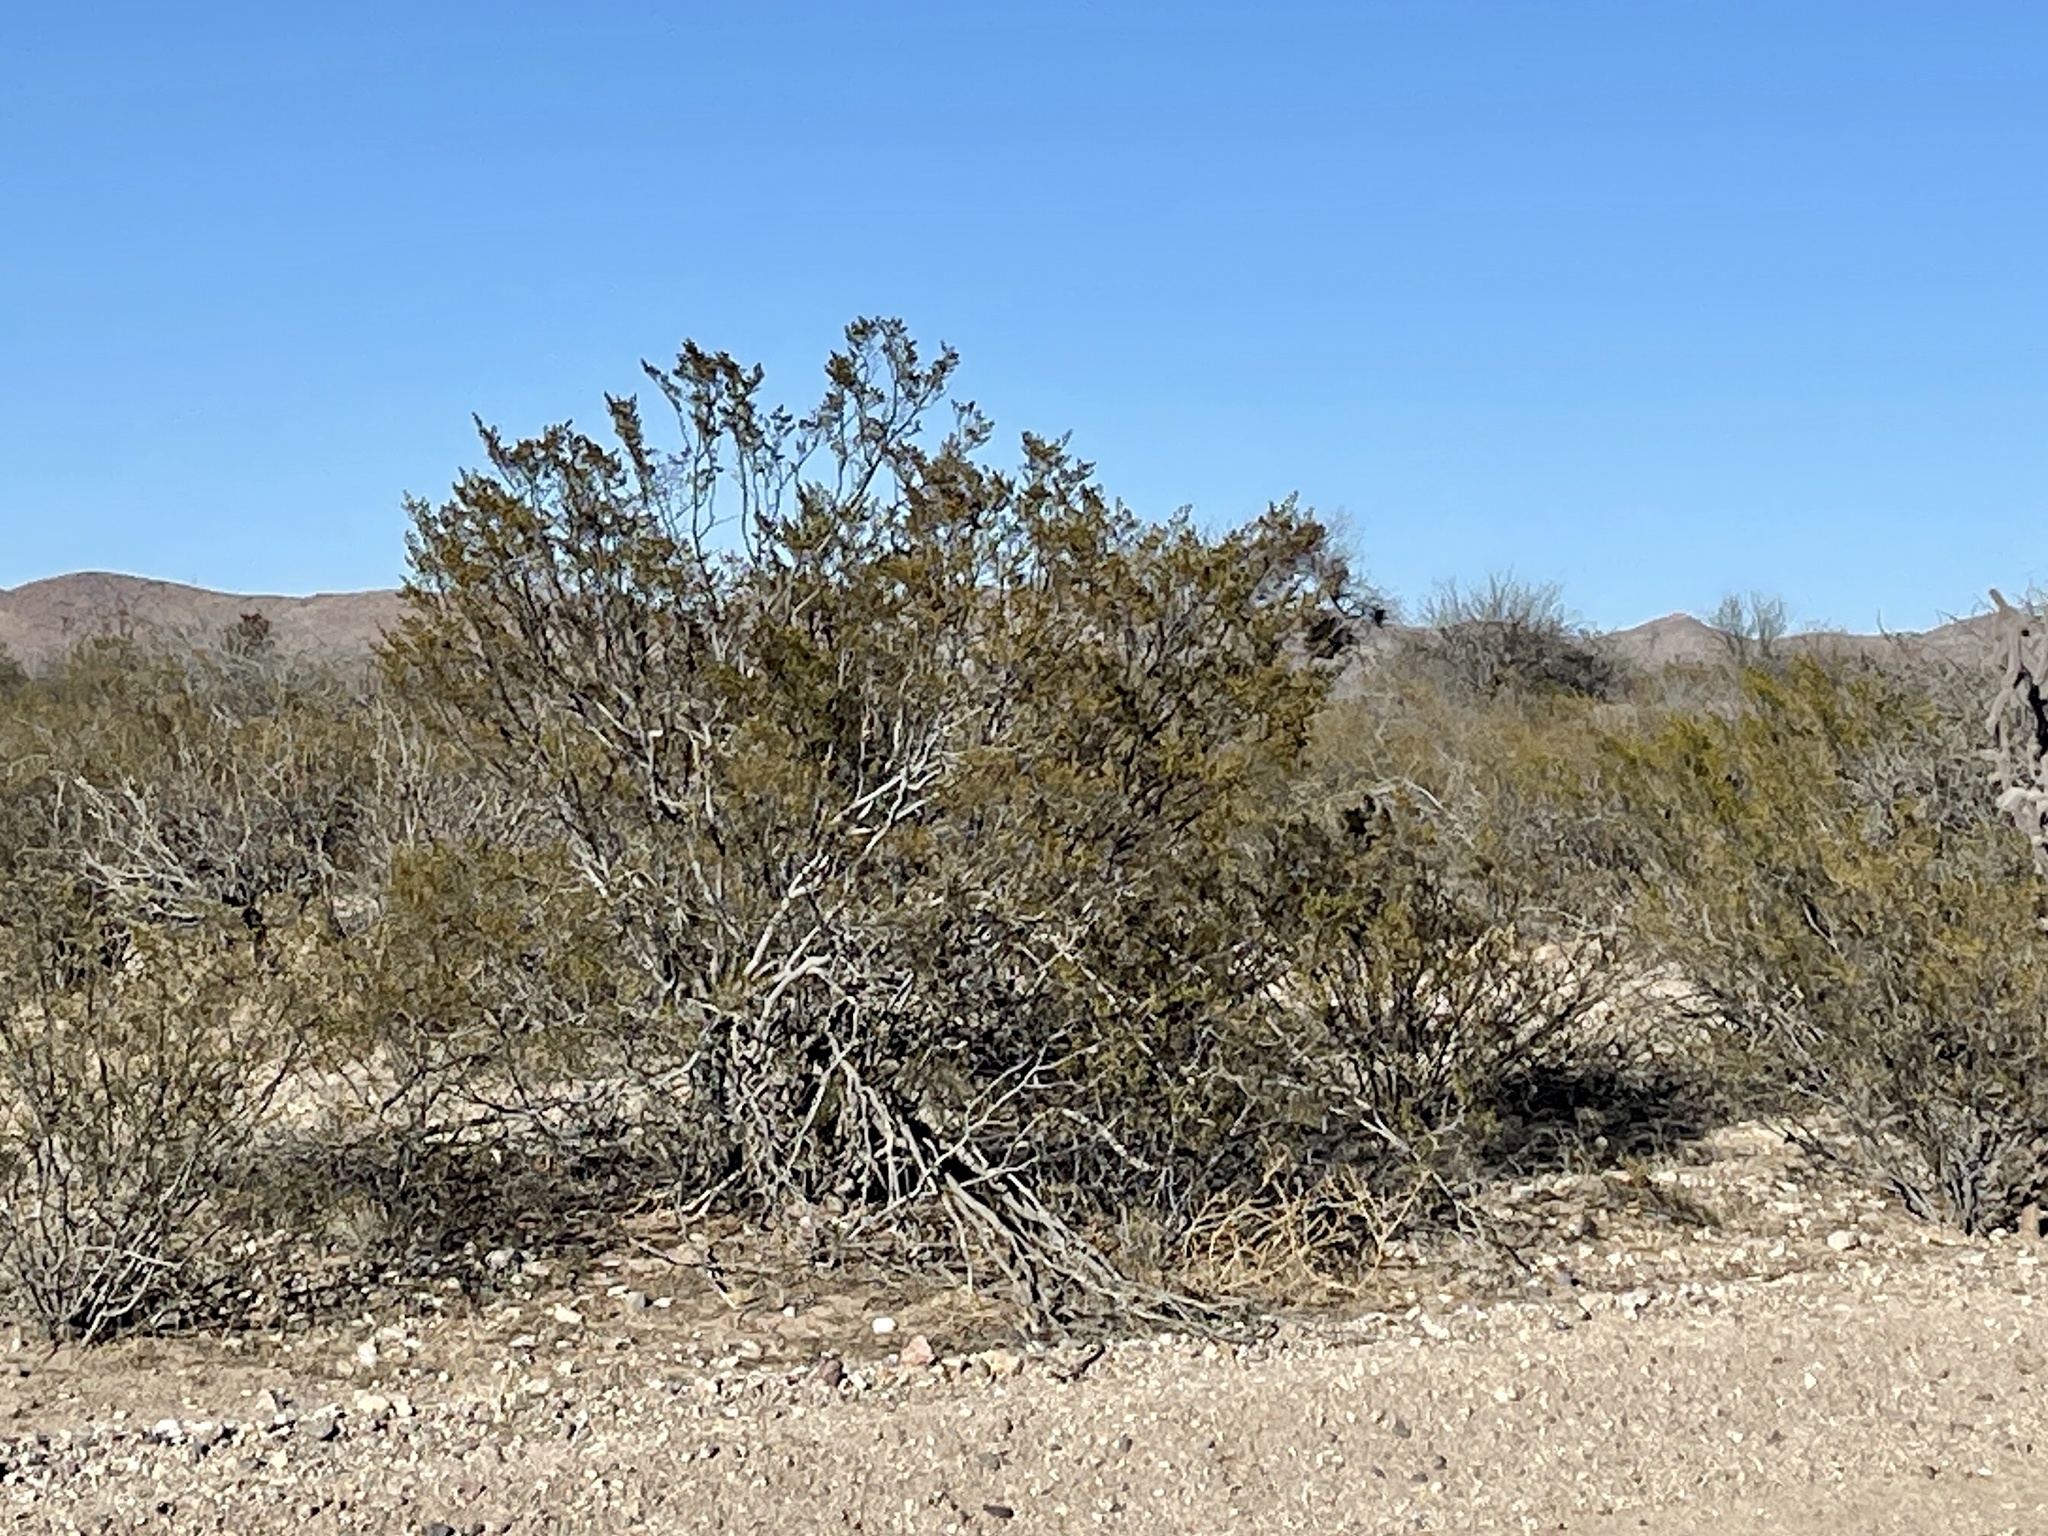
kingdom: Plantae
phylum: Tracheophyta
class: Magnoliopsida
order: Zygophyllales
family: Zygophyllaceae
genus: Larrea
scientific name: Larrea tridentata
